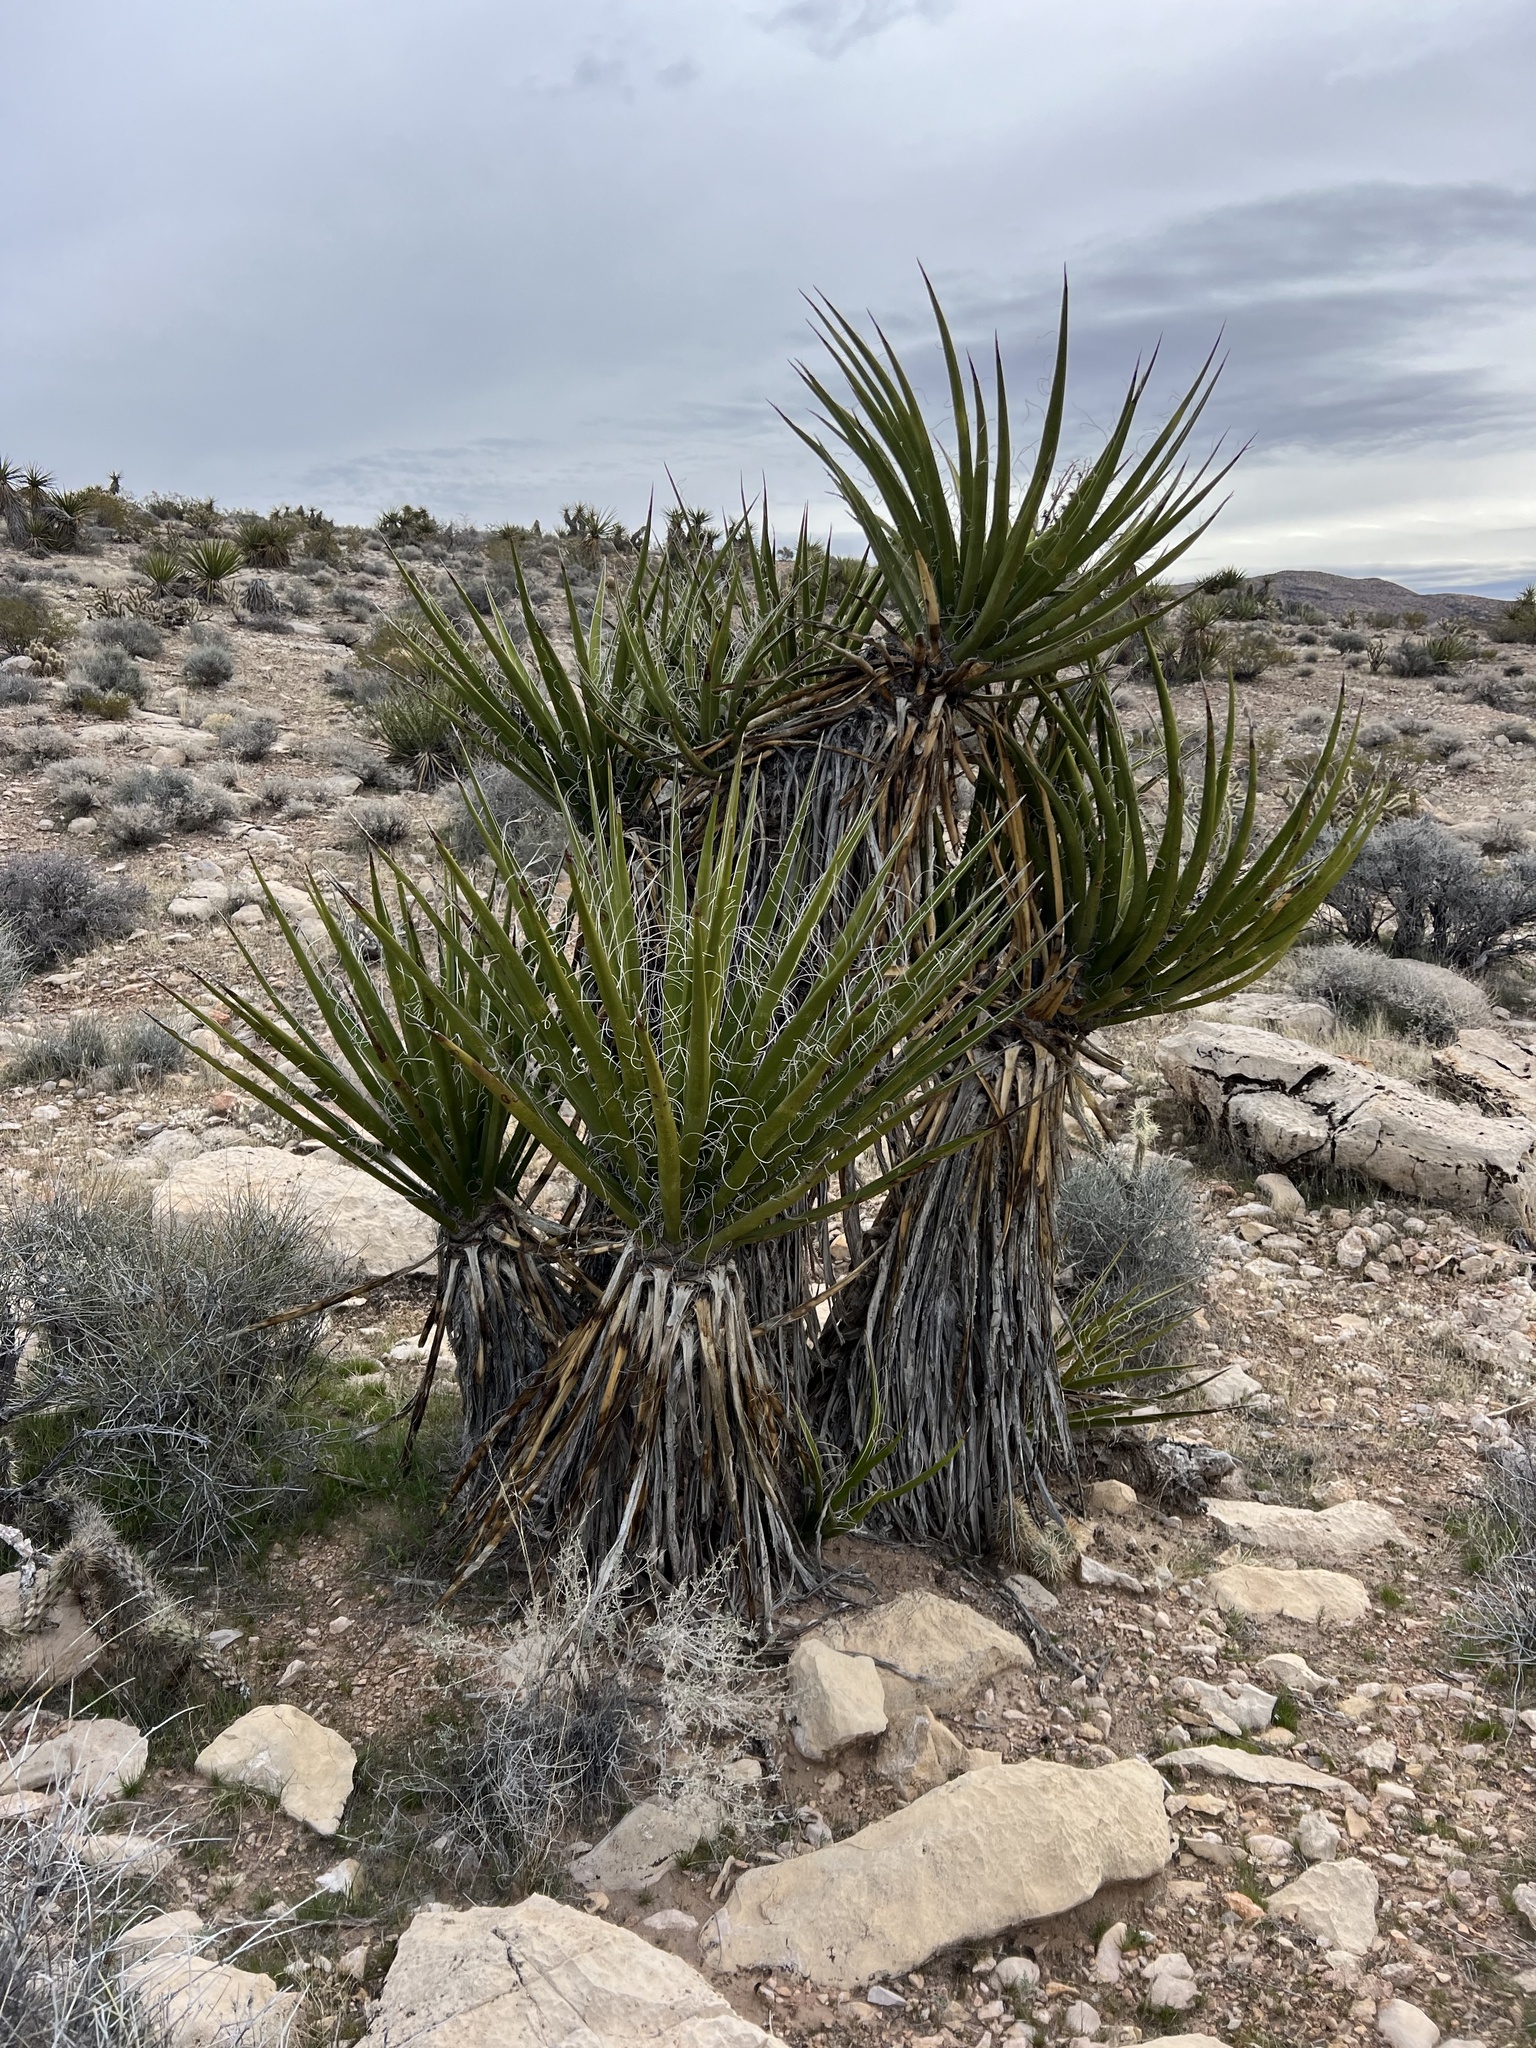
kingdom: Plantae
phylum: Tracheophyta
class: Liliopsida
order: Asparagales
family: Asparagaceae
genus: Yucca
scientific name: Yucca schidigera
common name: Mojave yucca
